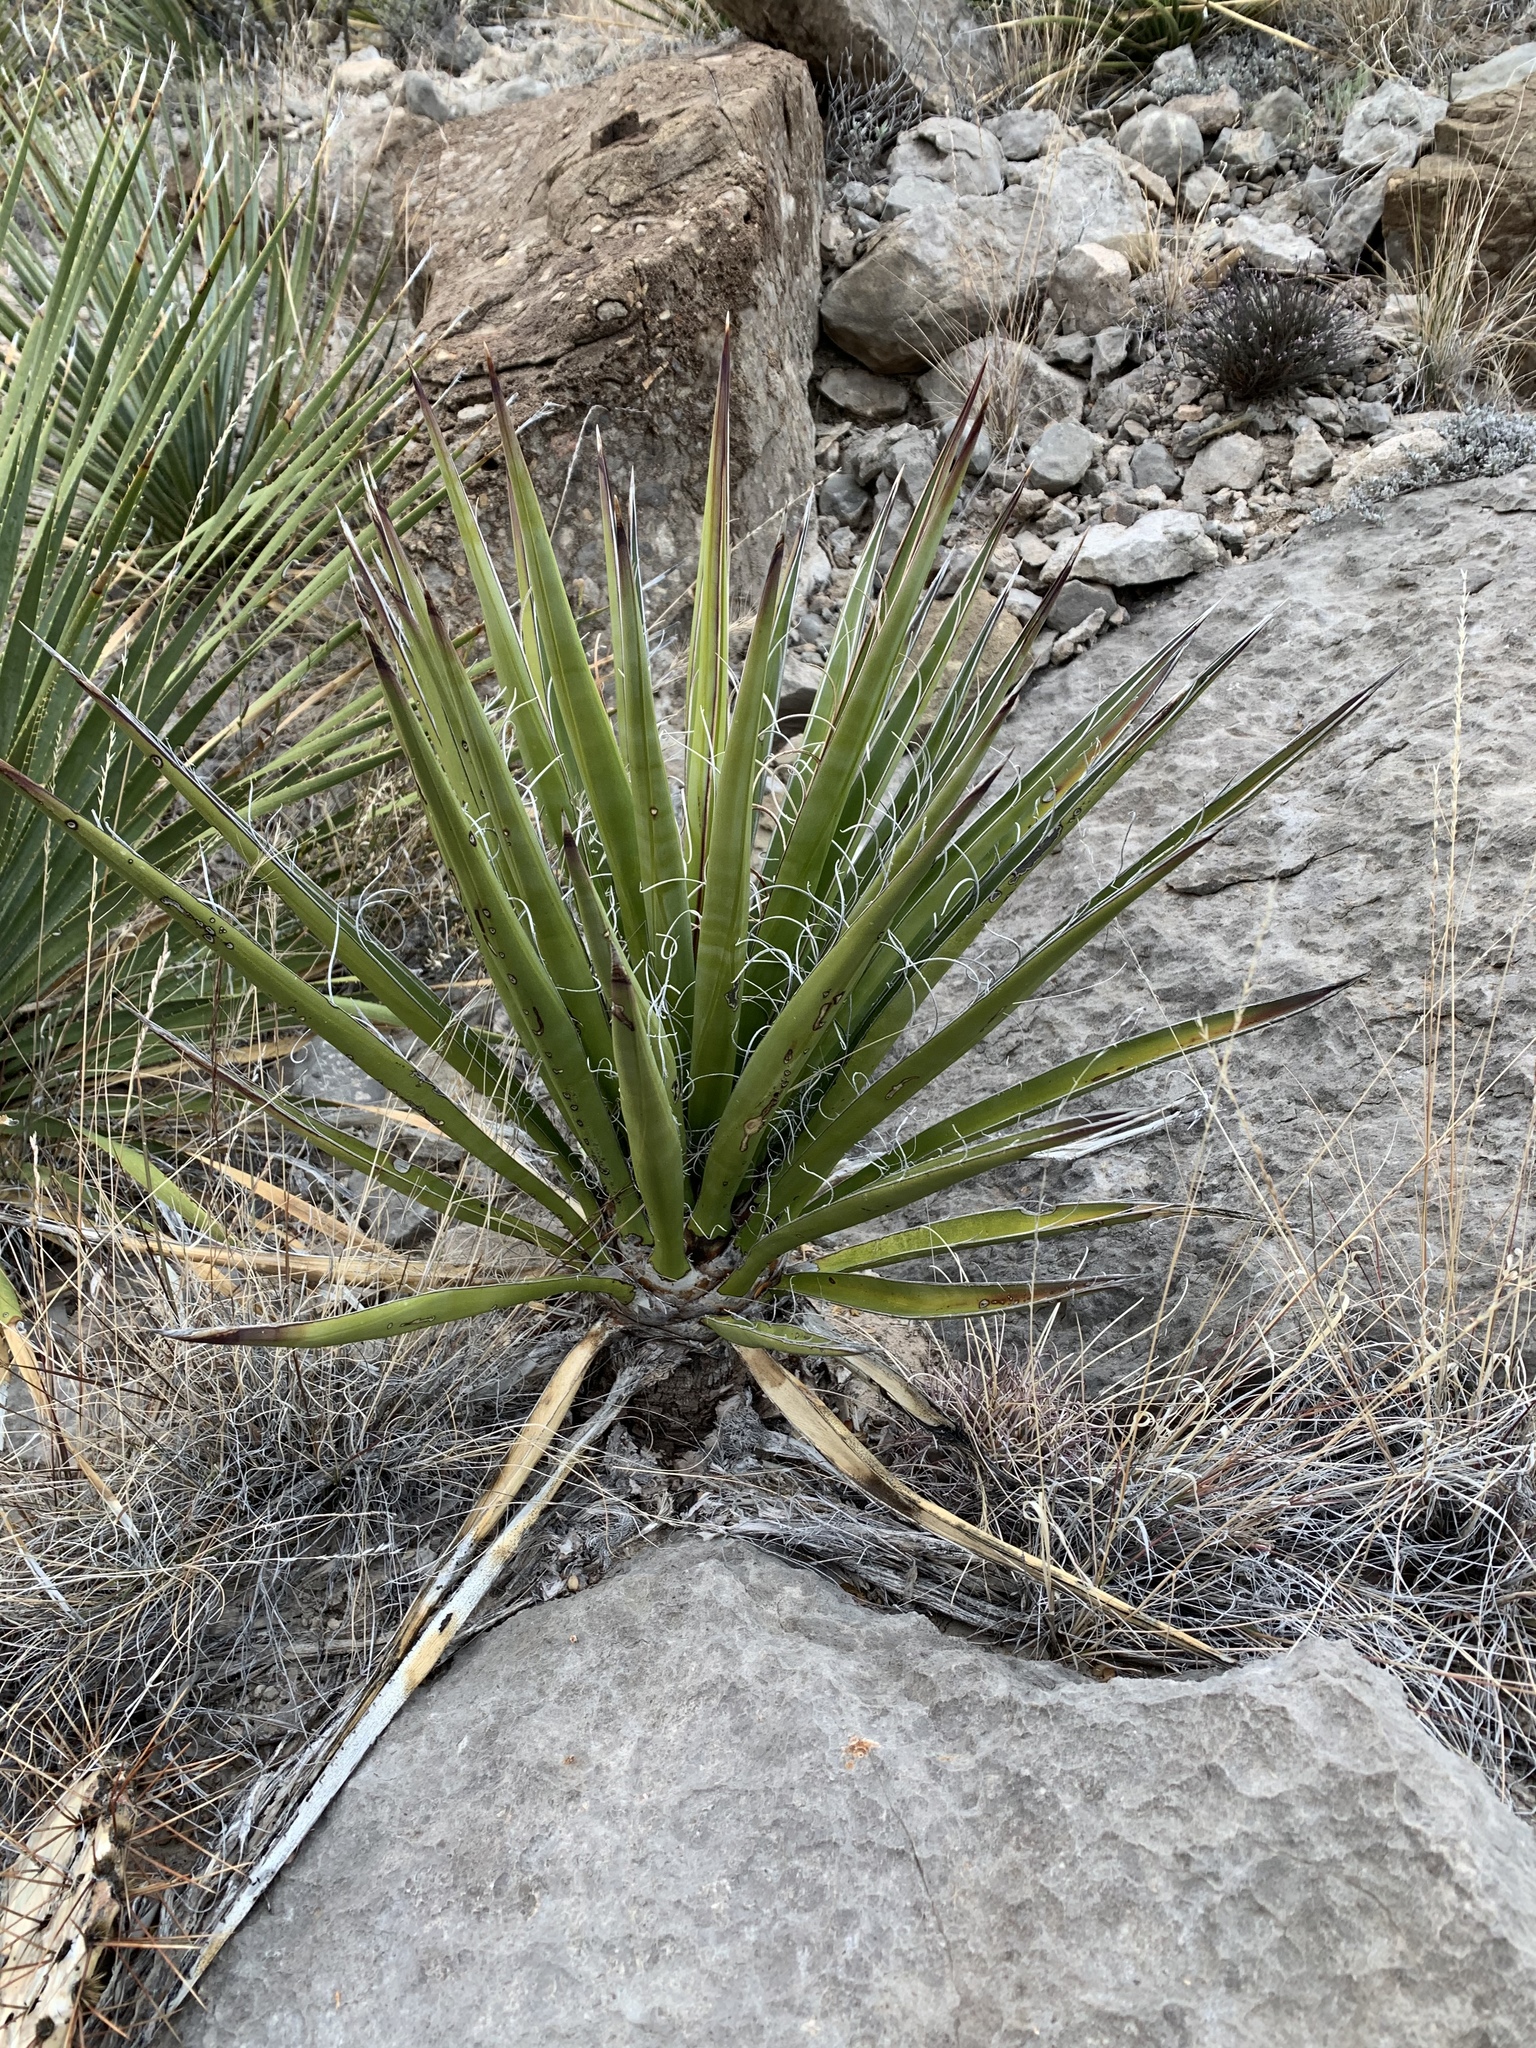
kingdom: Plantae
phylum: Tracheophyta
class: Liliopsida
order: Asparagales
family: Asparagaceae
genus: Yucca
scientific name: Yucca treculiana
